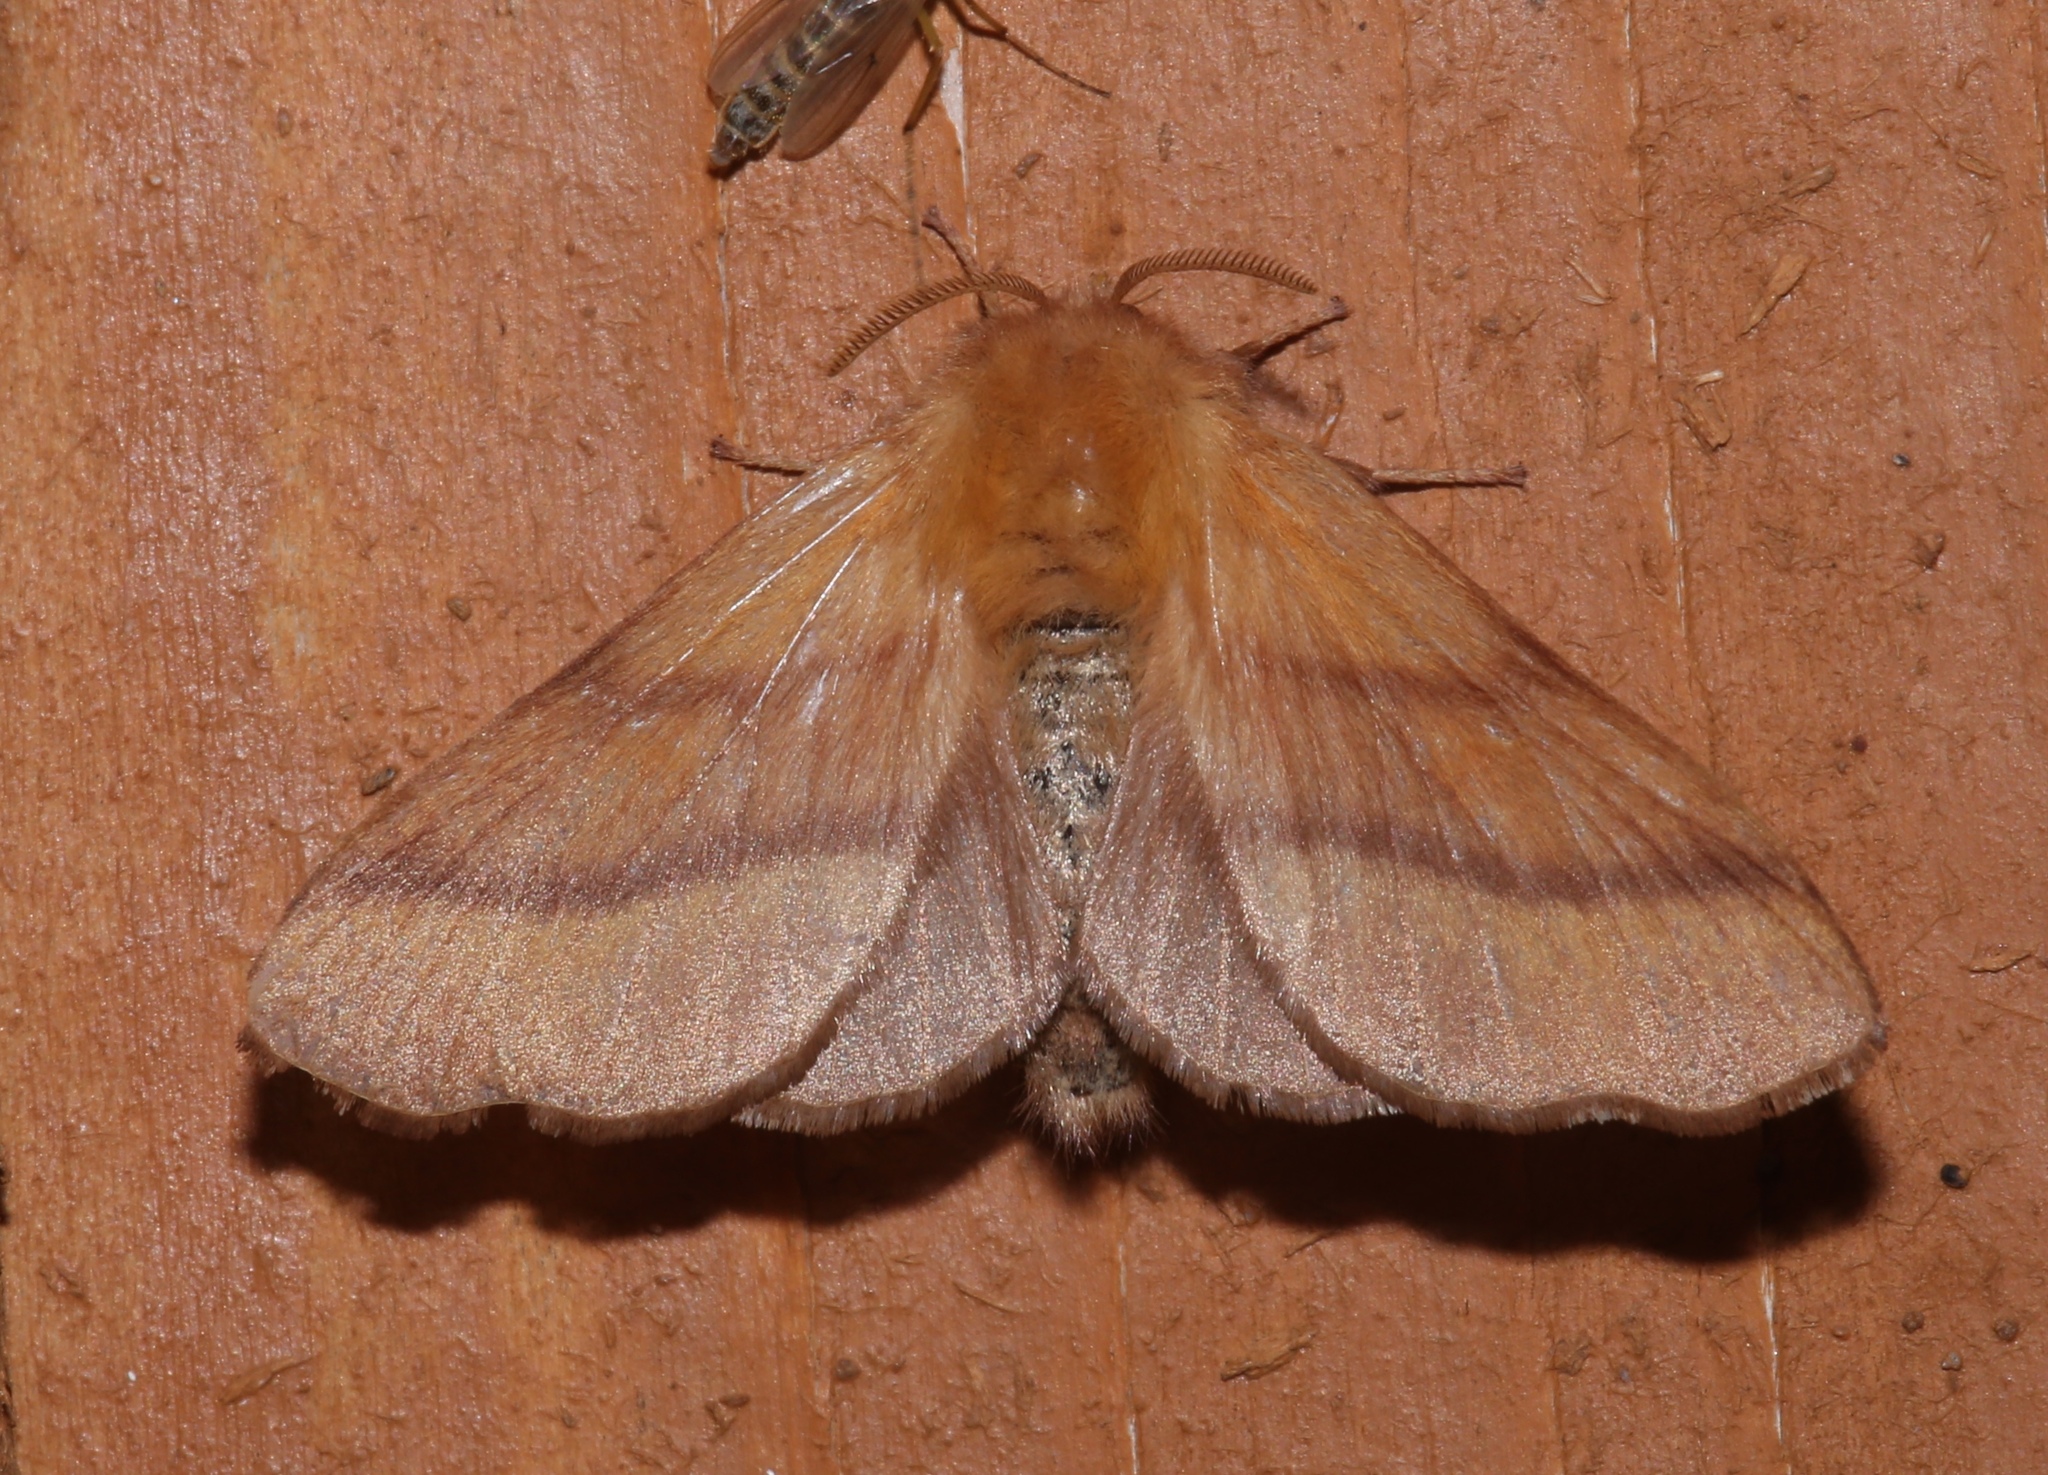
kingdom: Animalia
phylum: Arthropoda
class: Insecta
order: Lepidoptera
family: Lasiocampidae
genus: Malacosoma
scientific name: Malacosoma disstria
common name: Forest tent caterpillar
